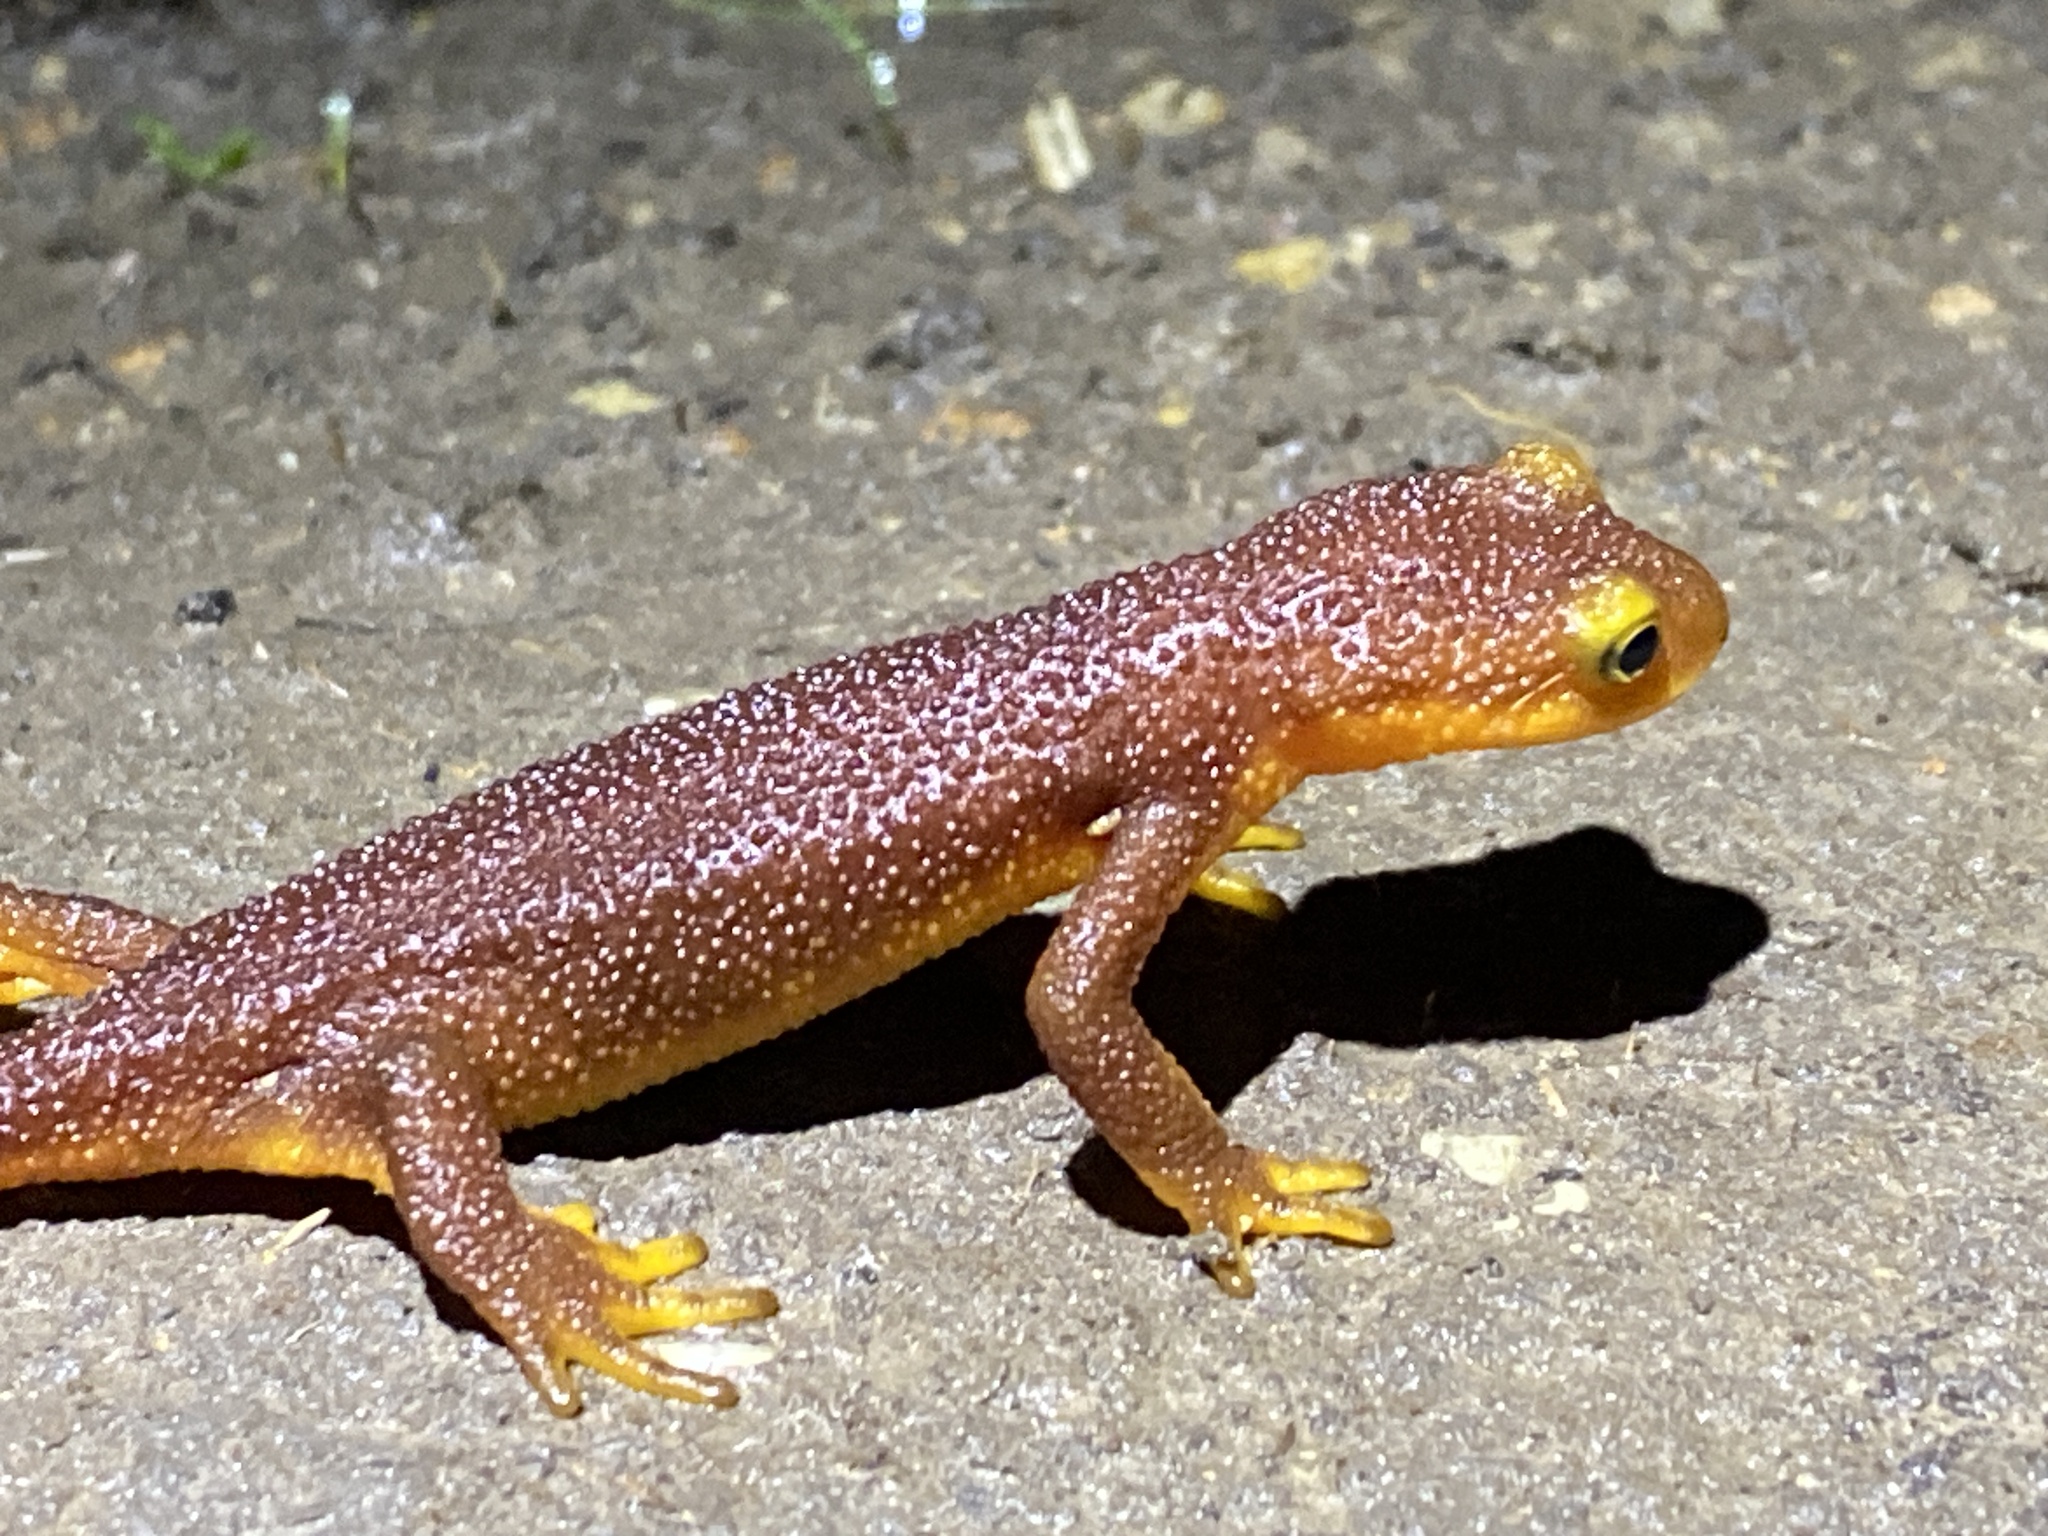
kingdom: Animalia
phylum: Chordata
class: Amphibia
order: Caudata
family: Salamandridae
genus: Taricha
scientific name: Taricha torosa
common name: California newt
